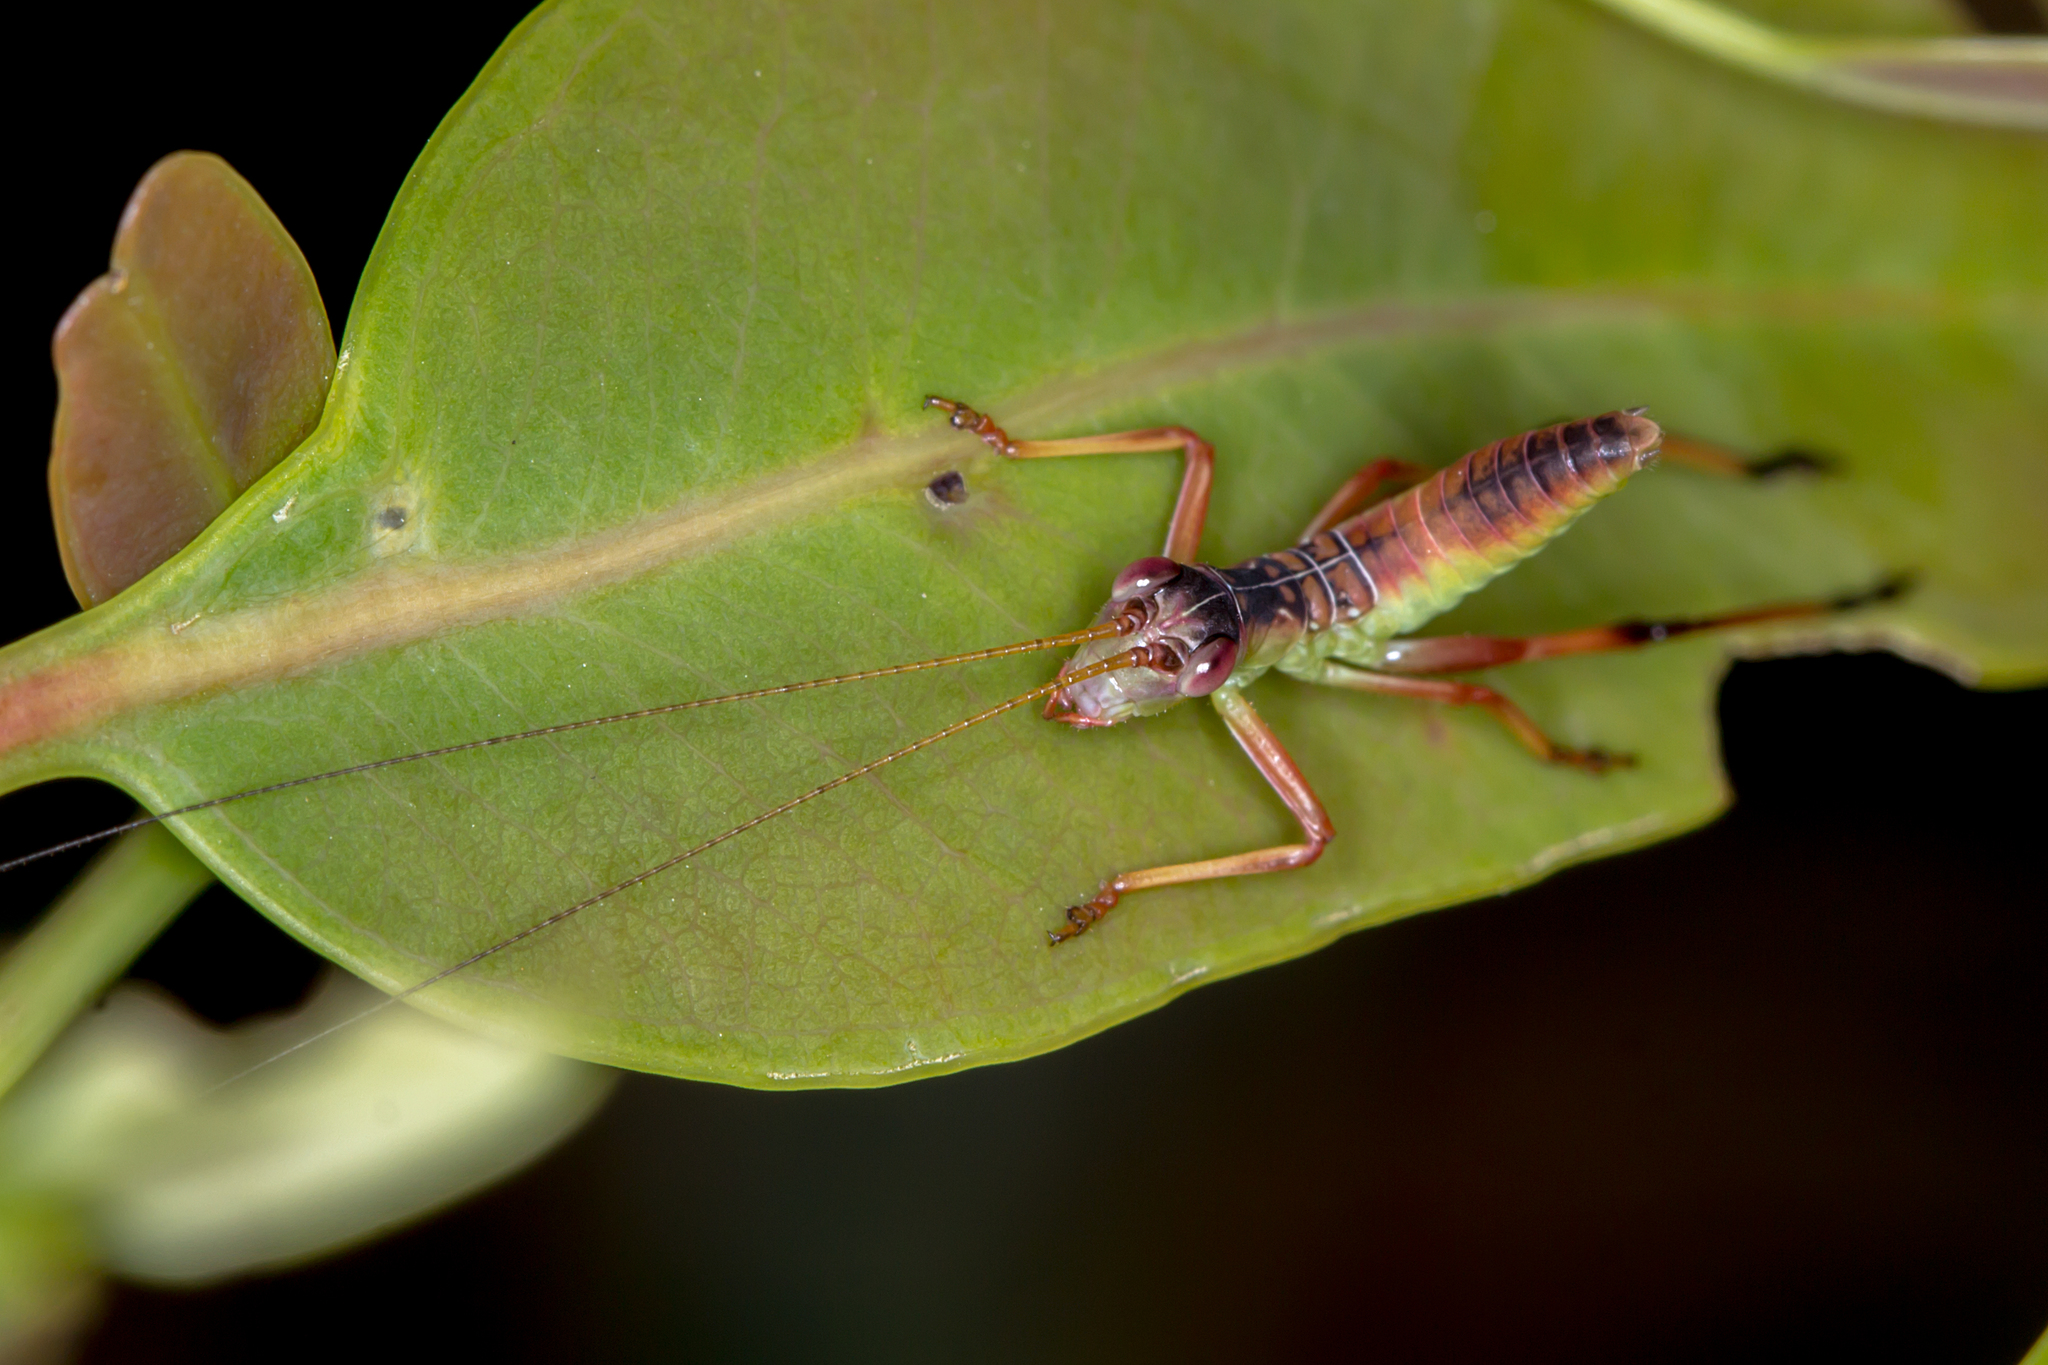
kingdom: Animalia
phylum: Arthropoda
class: Insecta
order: Orthoptera
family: Tettigoniidae
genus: Torbia
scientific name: Torbia viridissima
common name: Non-predaceous gum leaf katydid
